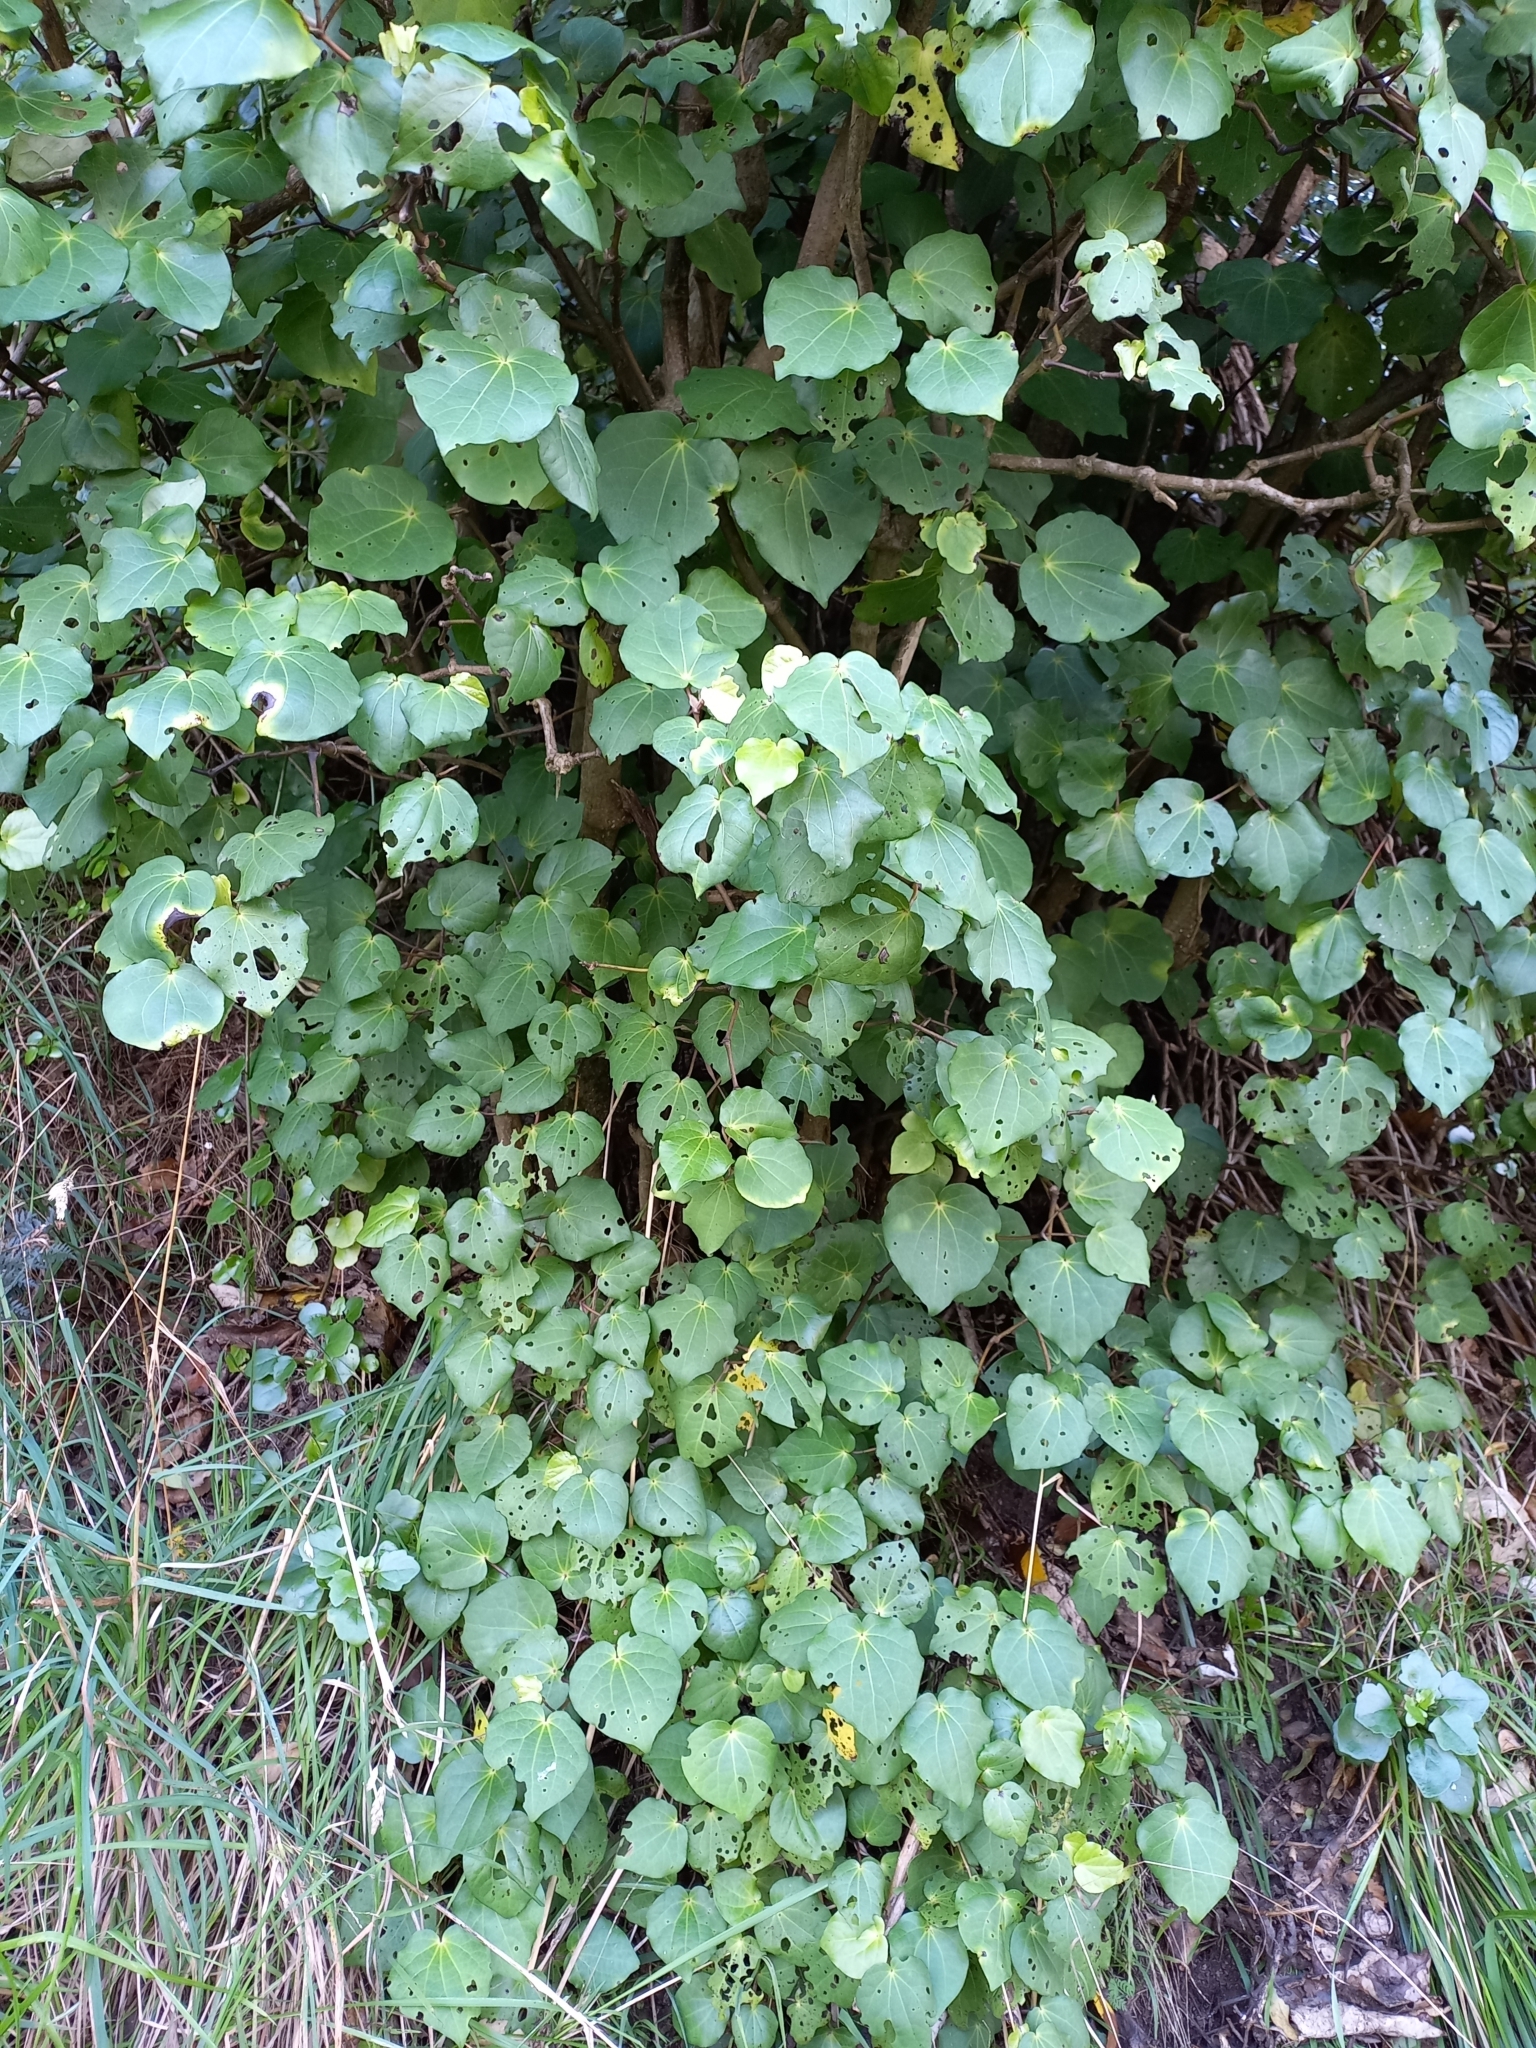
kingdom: Plantae
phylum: Tracheophyta
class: Magnoliopsida
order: Piperales
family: Piperaceae
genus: Macropiper
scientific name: Macropiper excelsum
